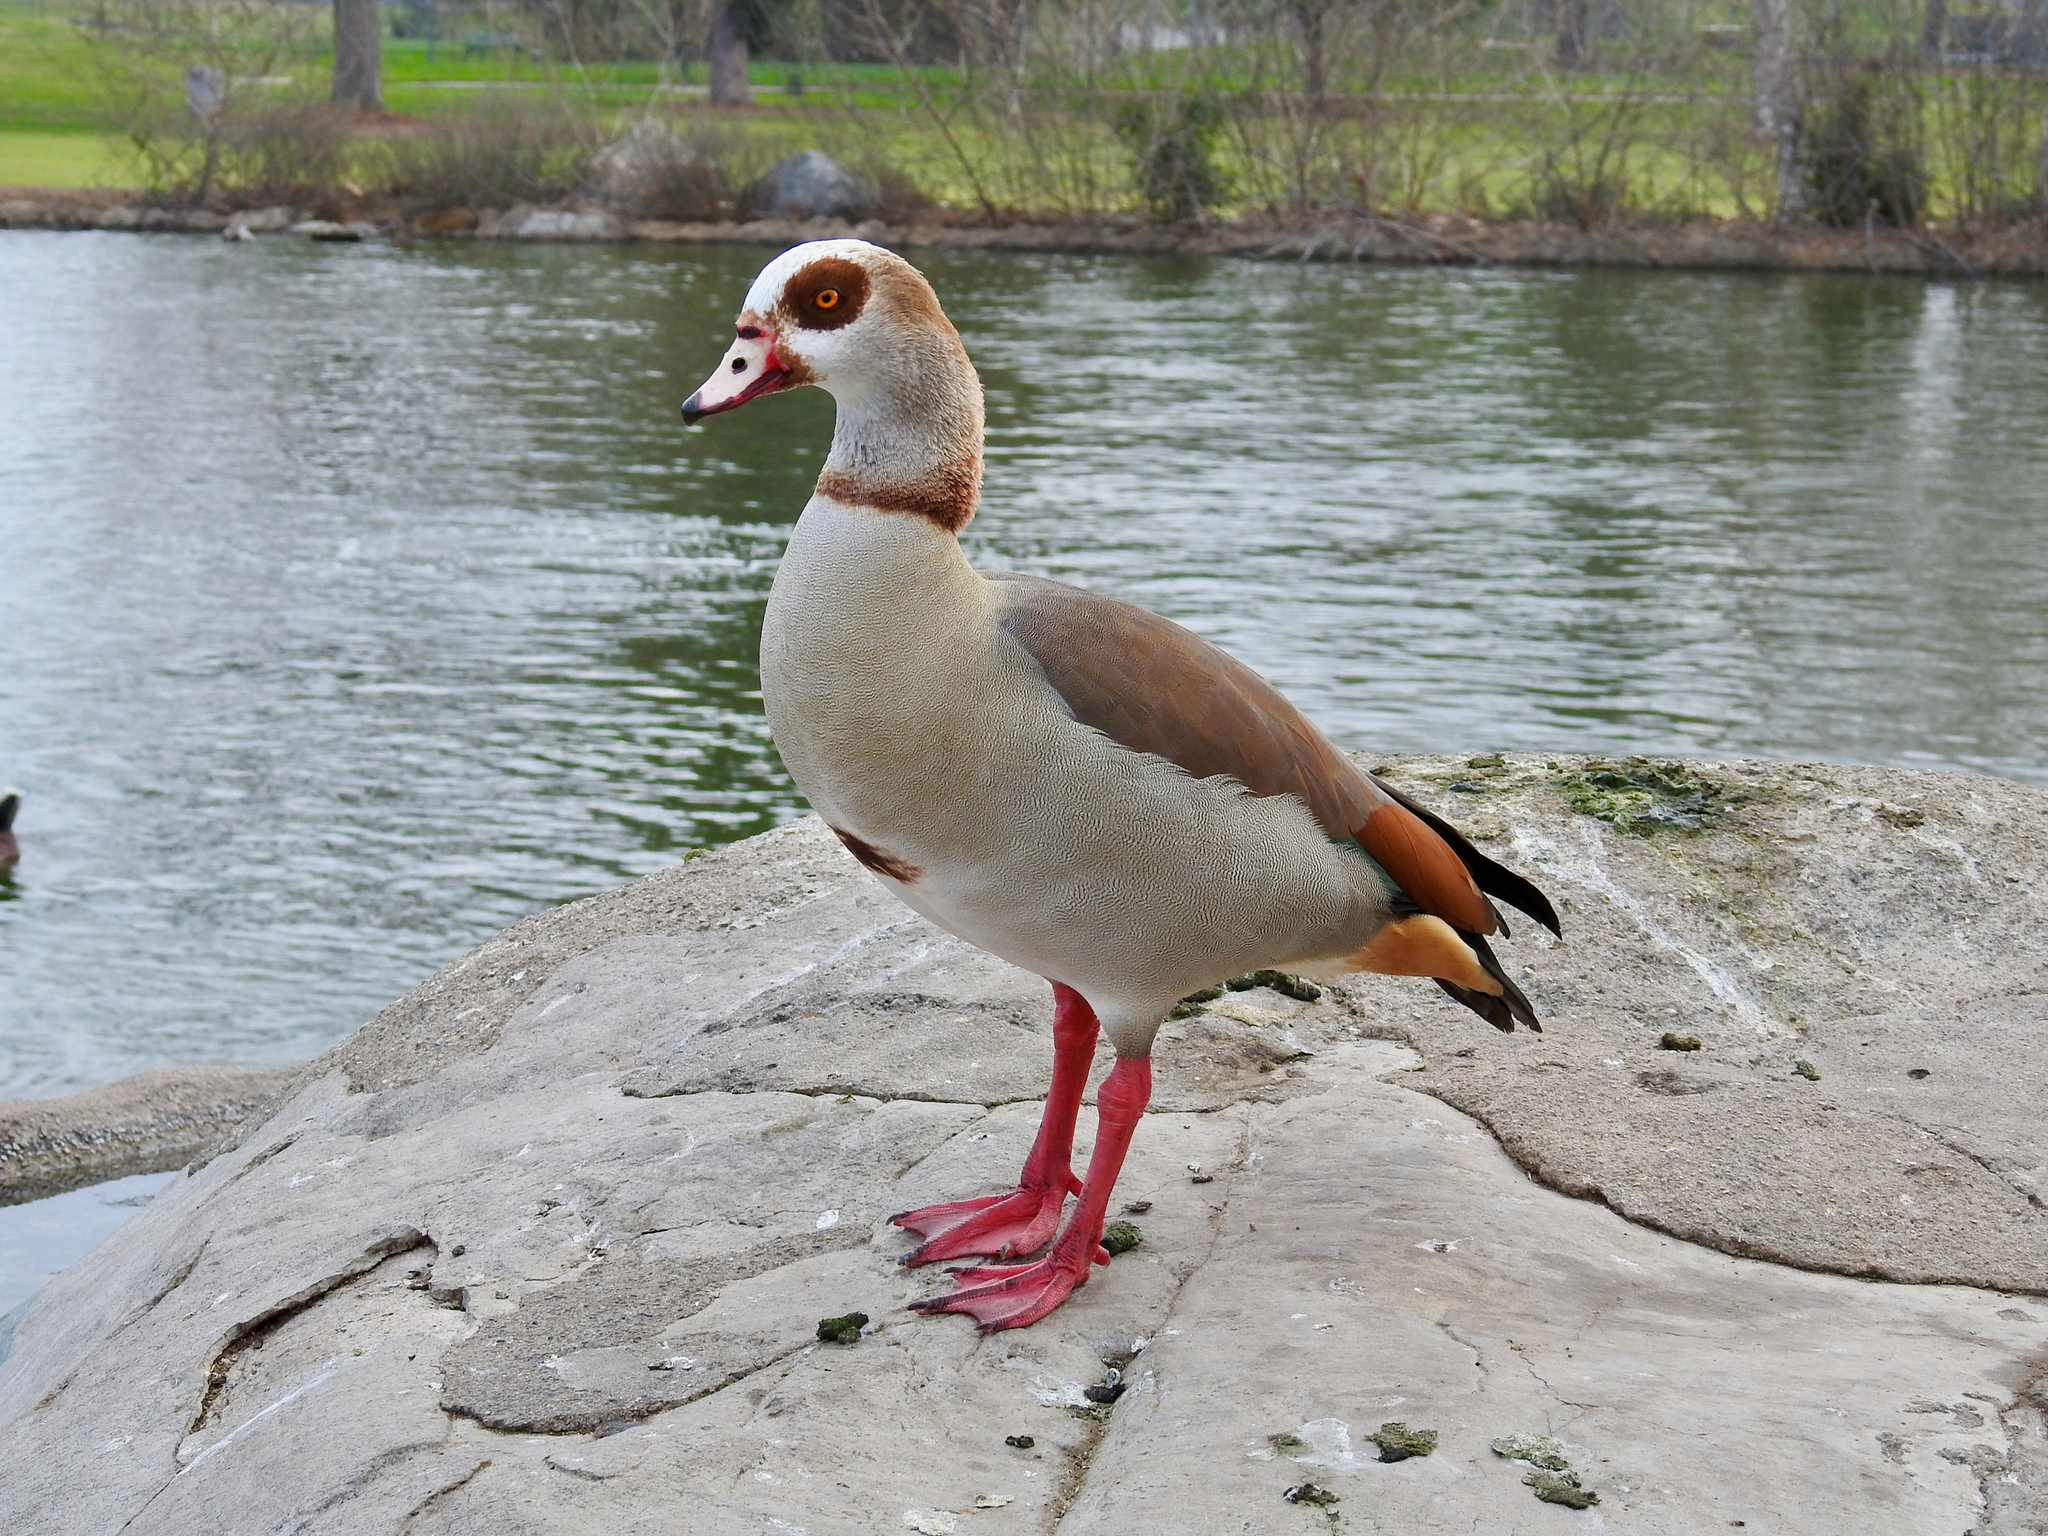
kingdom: Animalia
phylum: Chordata
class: Aves
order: Anseriformes
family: Anatidae
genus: Alopochen
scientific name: Alopochen aegyptiaca
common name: Egyptian goose
